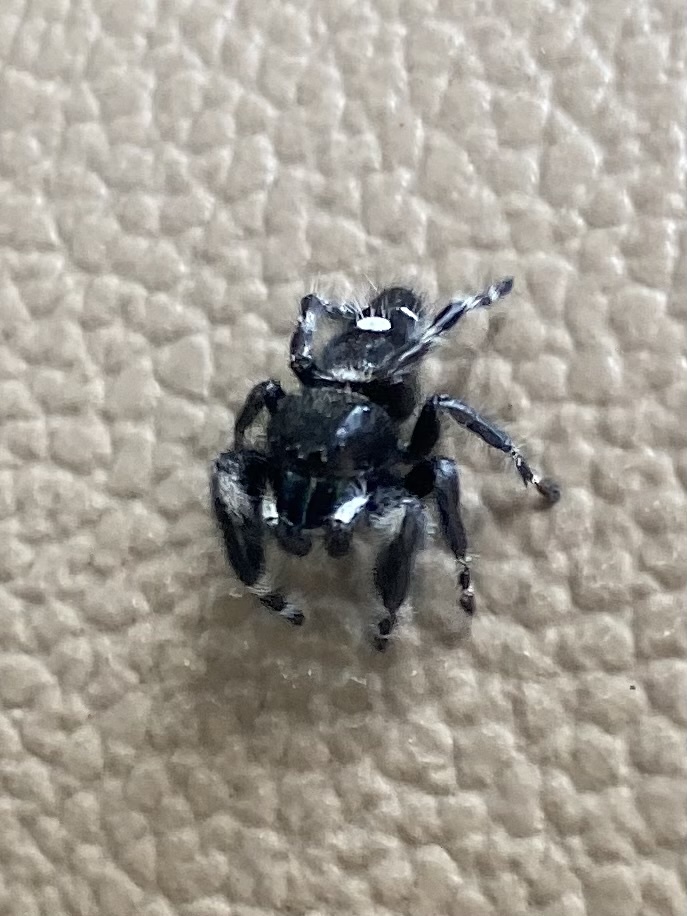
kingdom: Animalia
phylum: Arthropoda
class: Arachnida
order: Araneae
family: Salticidae
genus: Phidippus
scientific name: Phidippus audax
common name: Bold jumper
